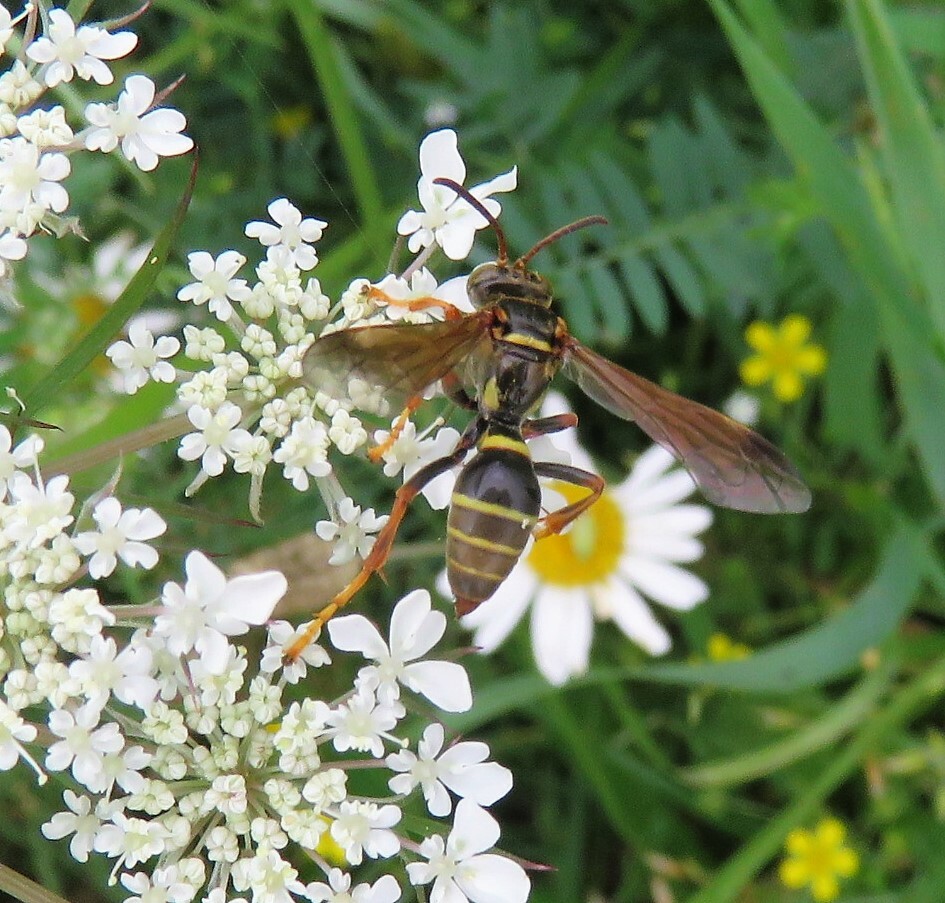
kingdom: Animalia
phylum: Arthropoda
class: Insecta
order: Hymenoptera
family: Crabronidae
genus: Saygorytes
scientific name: Saygorytes phaleratus
